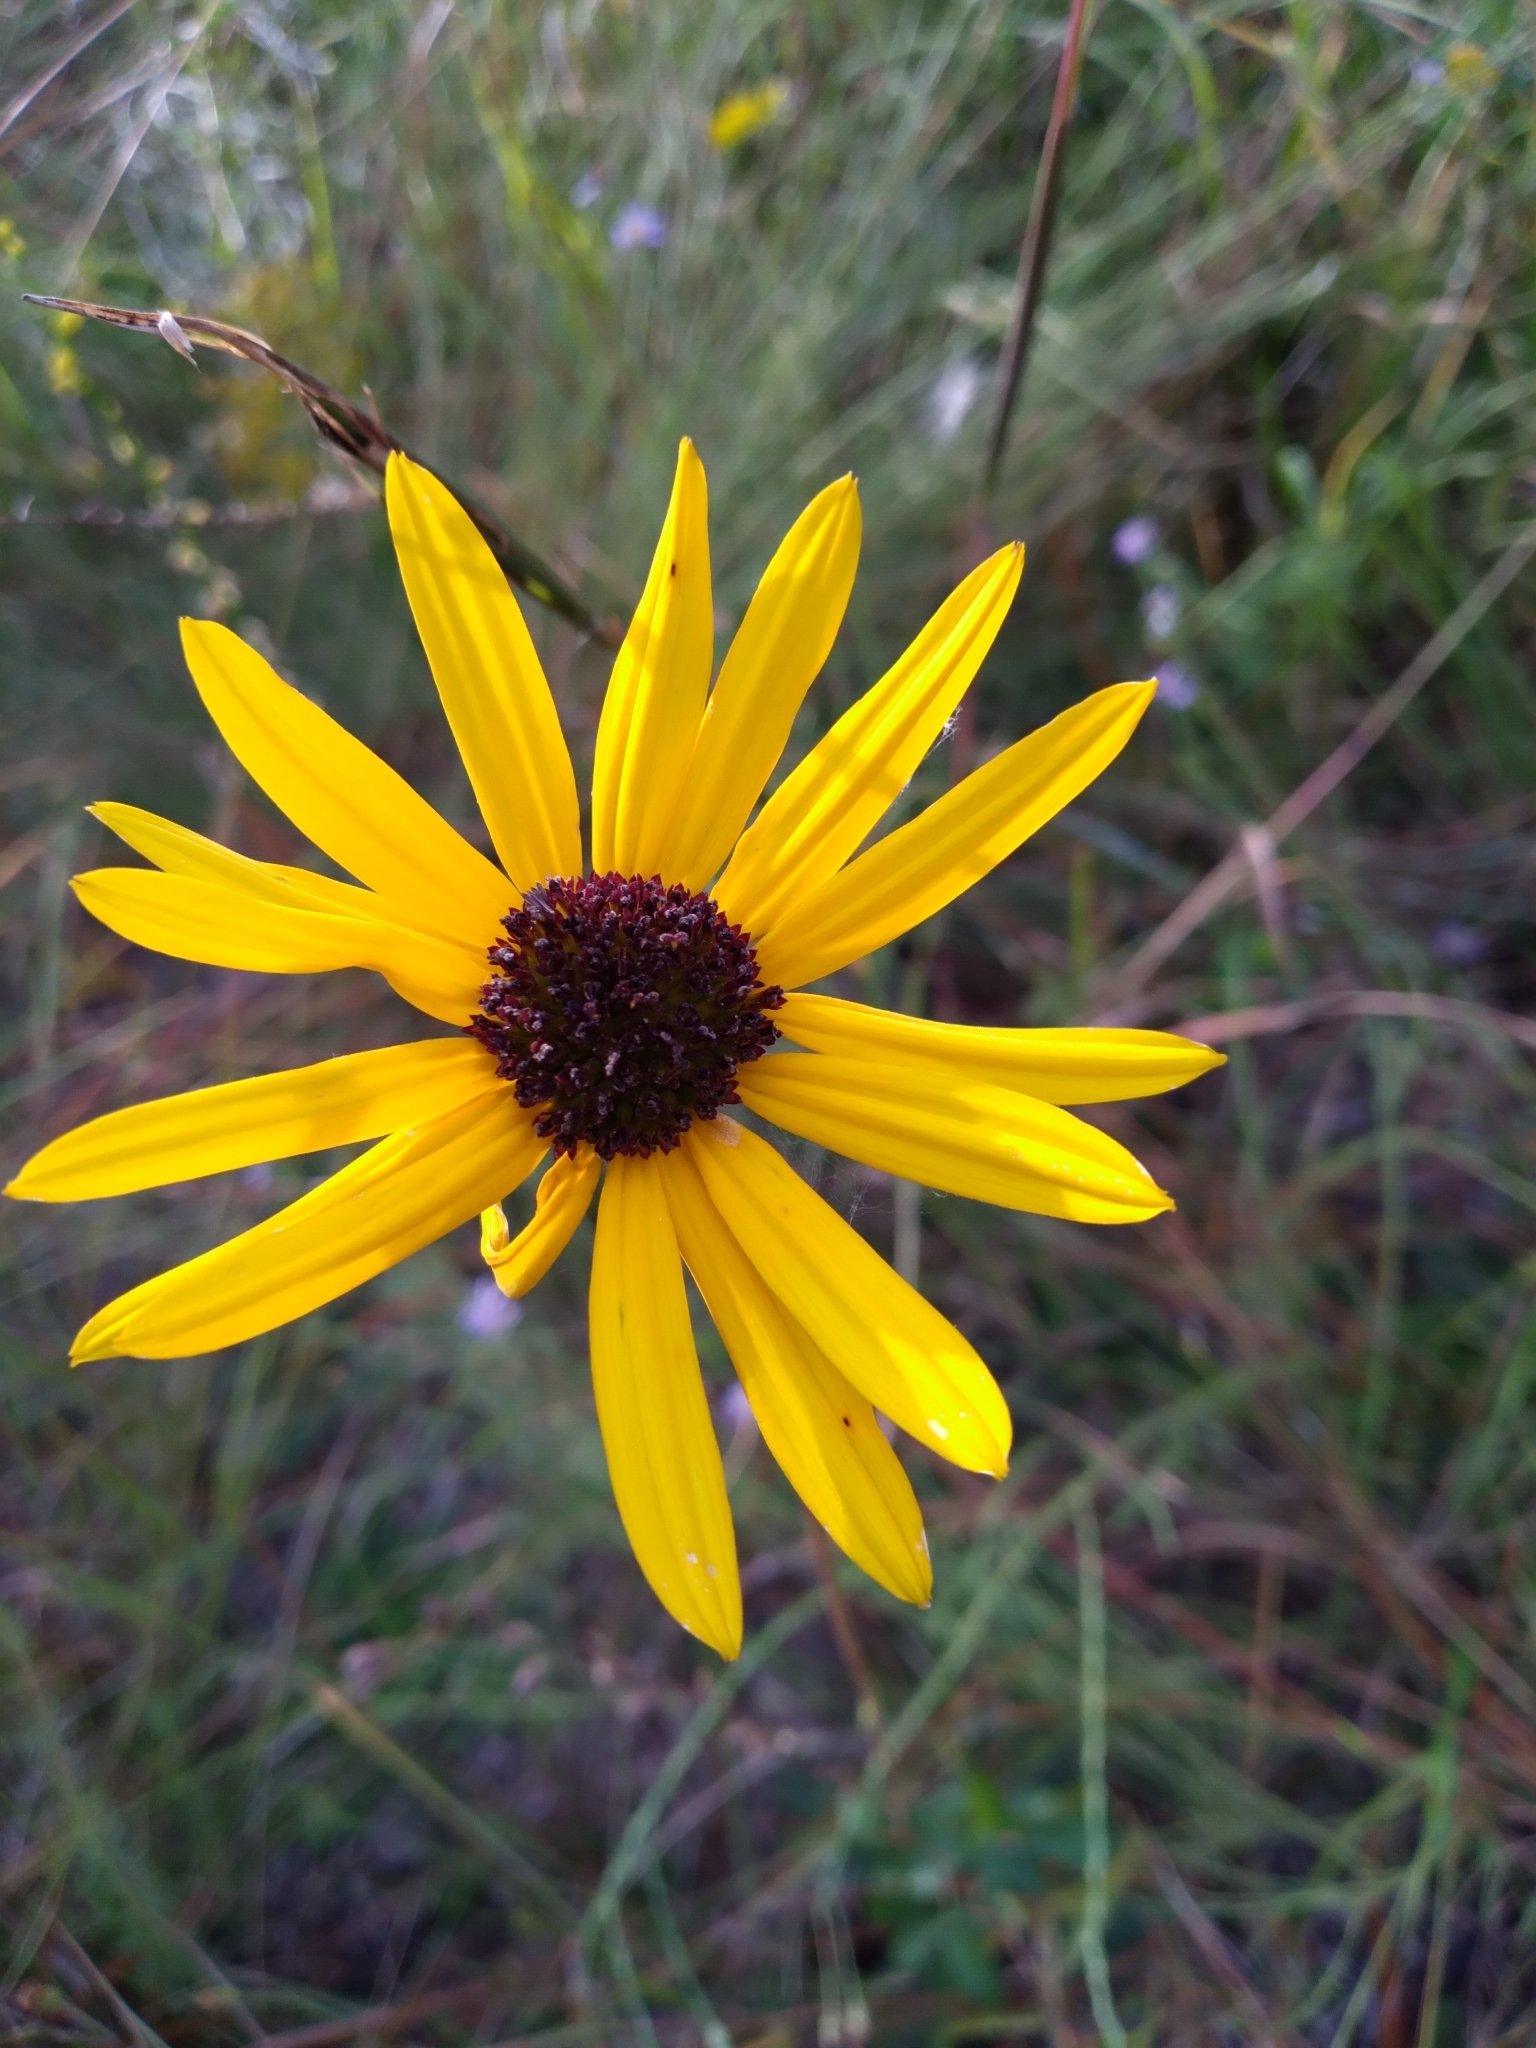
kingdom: Plantae
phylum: Tracheophyta
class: Magnoliopsida
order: Asterales
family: Asteraceae
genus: Helianthus
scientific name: Helianthus heterophyllus
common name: Wetland sunflower
